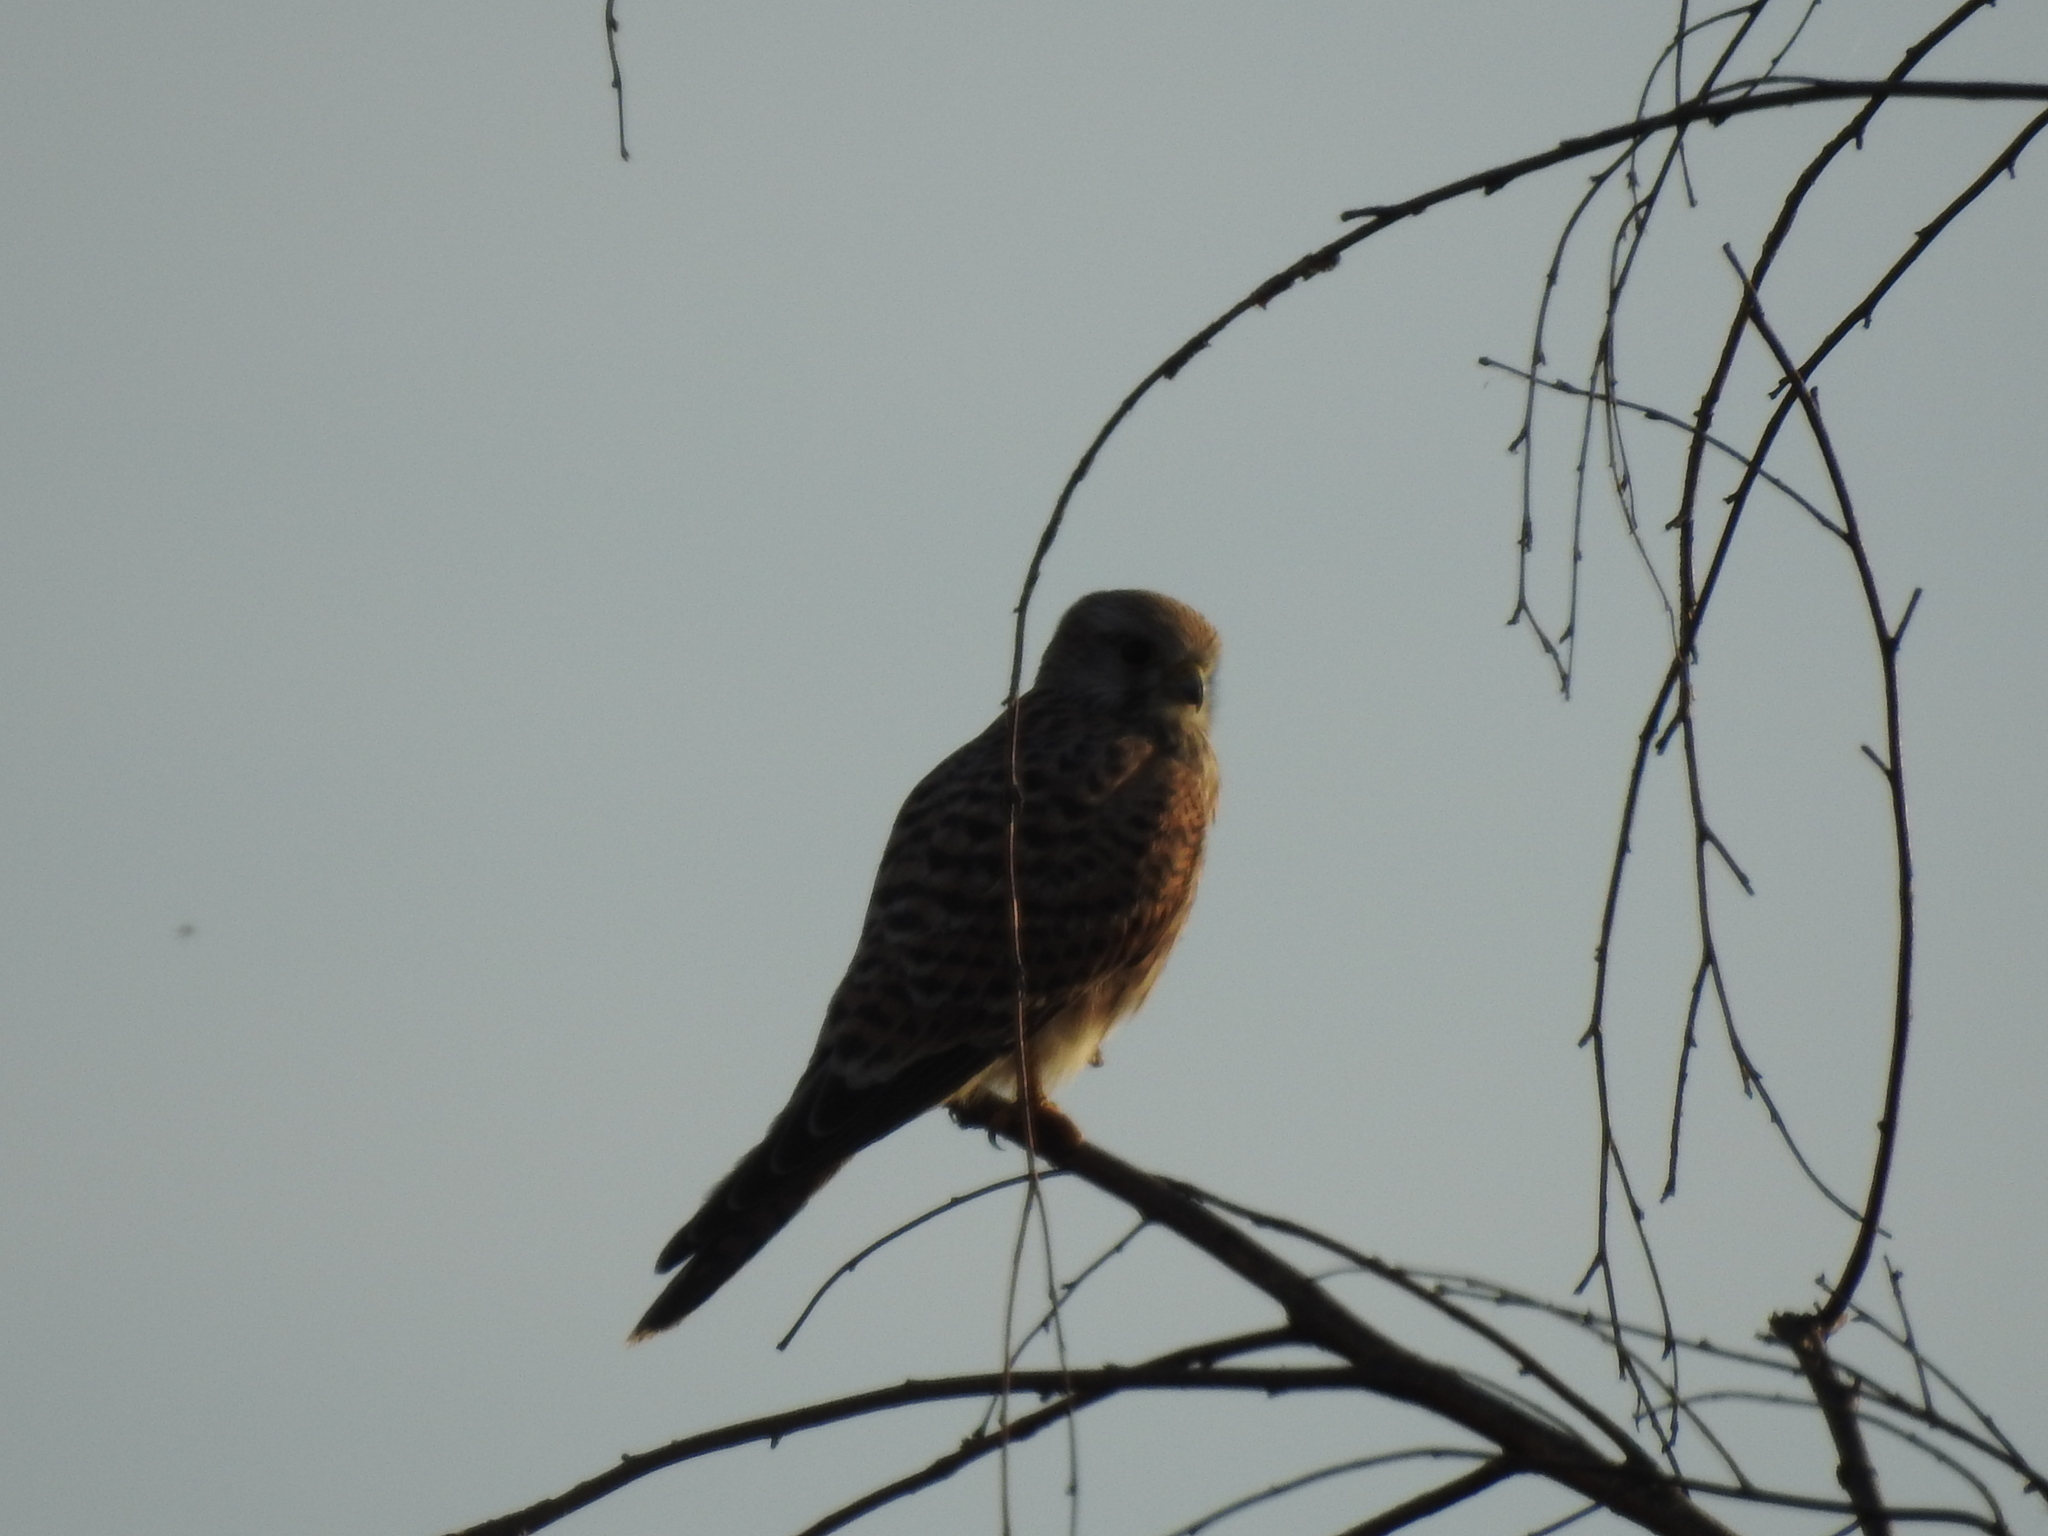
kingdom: Animalia
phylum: Chordata
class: Aves
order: Falconiformes
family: Falconidae
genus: Falco
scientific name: Falco tinnunculus
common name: Common kestrel
